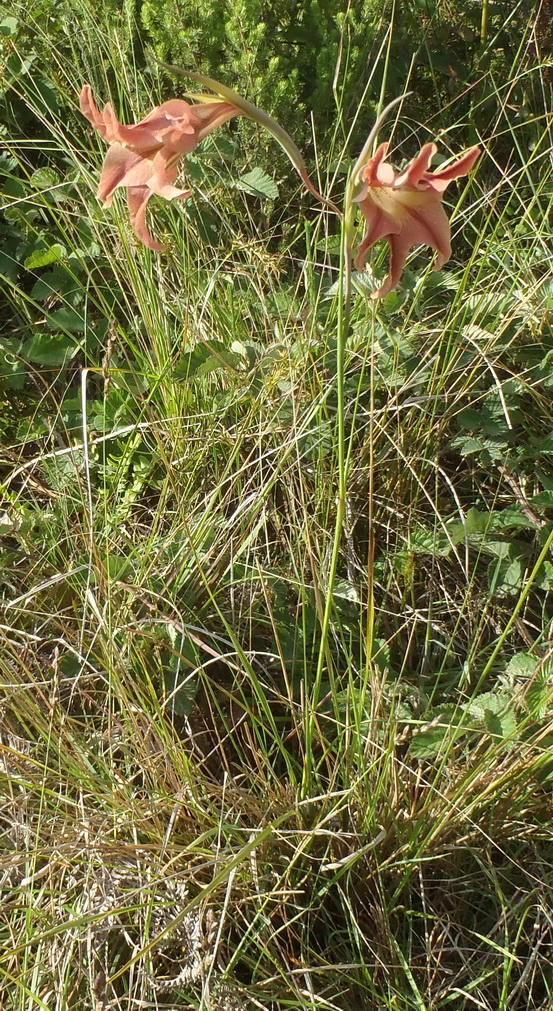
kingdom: Plantae
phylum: Tracheophyta
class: Liliopsida
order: Asparagales
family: Iridaceae
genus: Gladiolus
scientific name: Gladiolus liliaceus
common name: Large brown afrikaner
